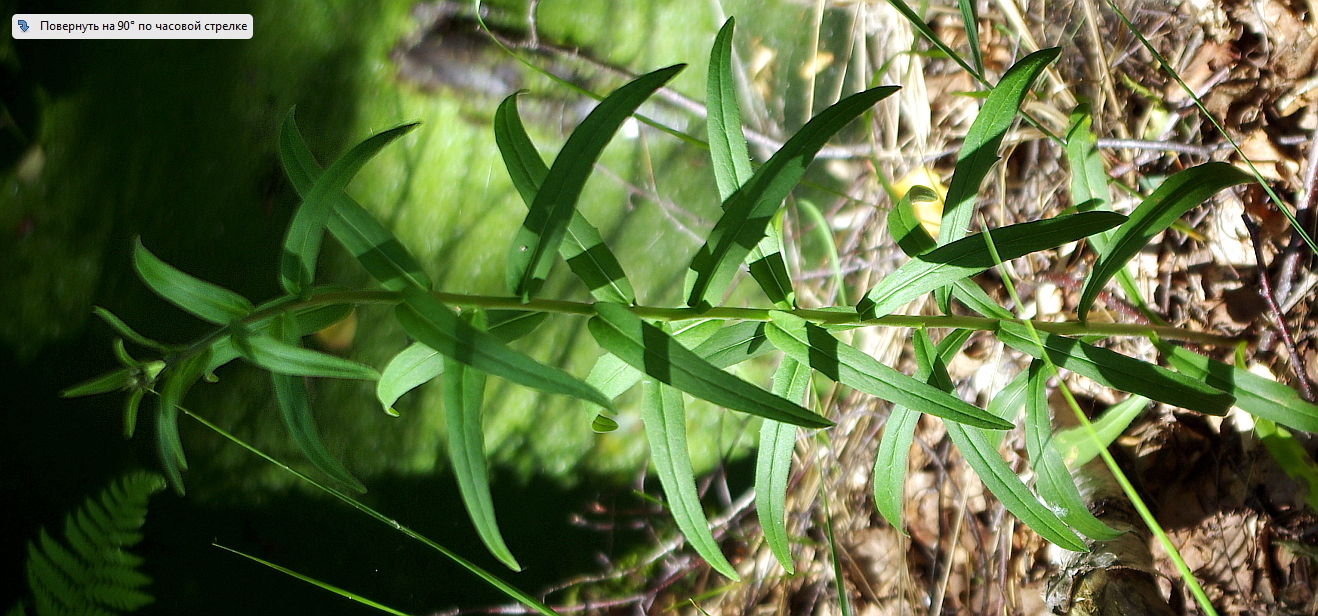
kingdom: Plantae
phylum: Tracheophyta
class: Magnoliopsida
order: Asterales
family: Asteraceae
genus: Hieracium
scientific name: Hieracium umbellatum
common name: Northern hawkweed
